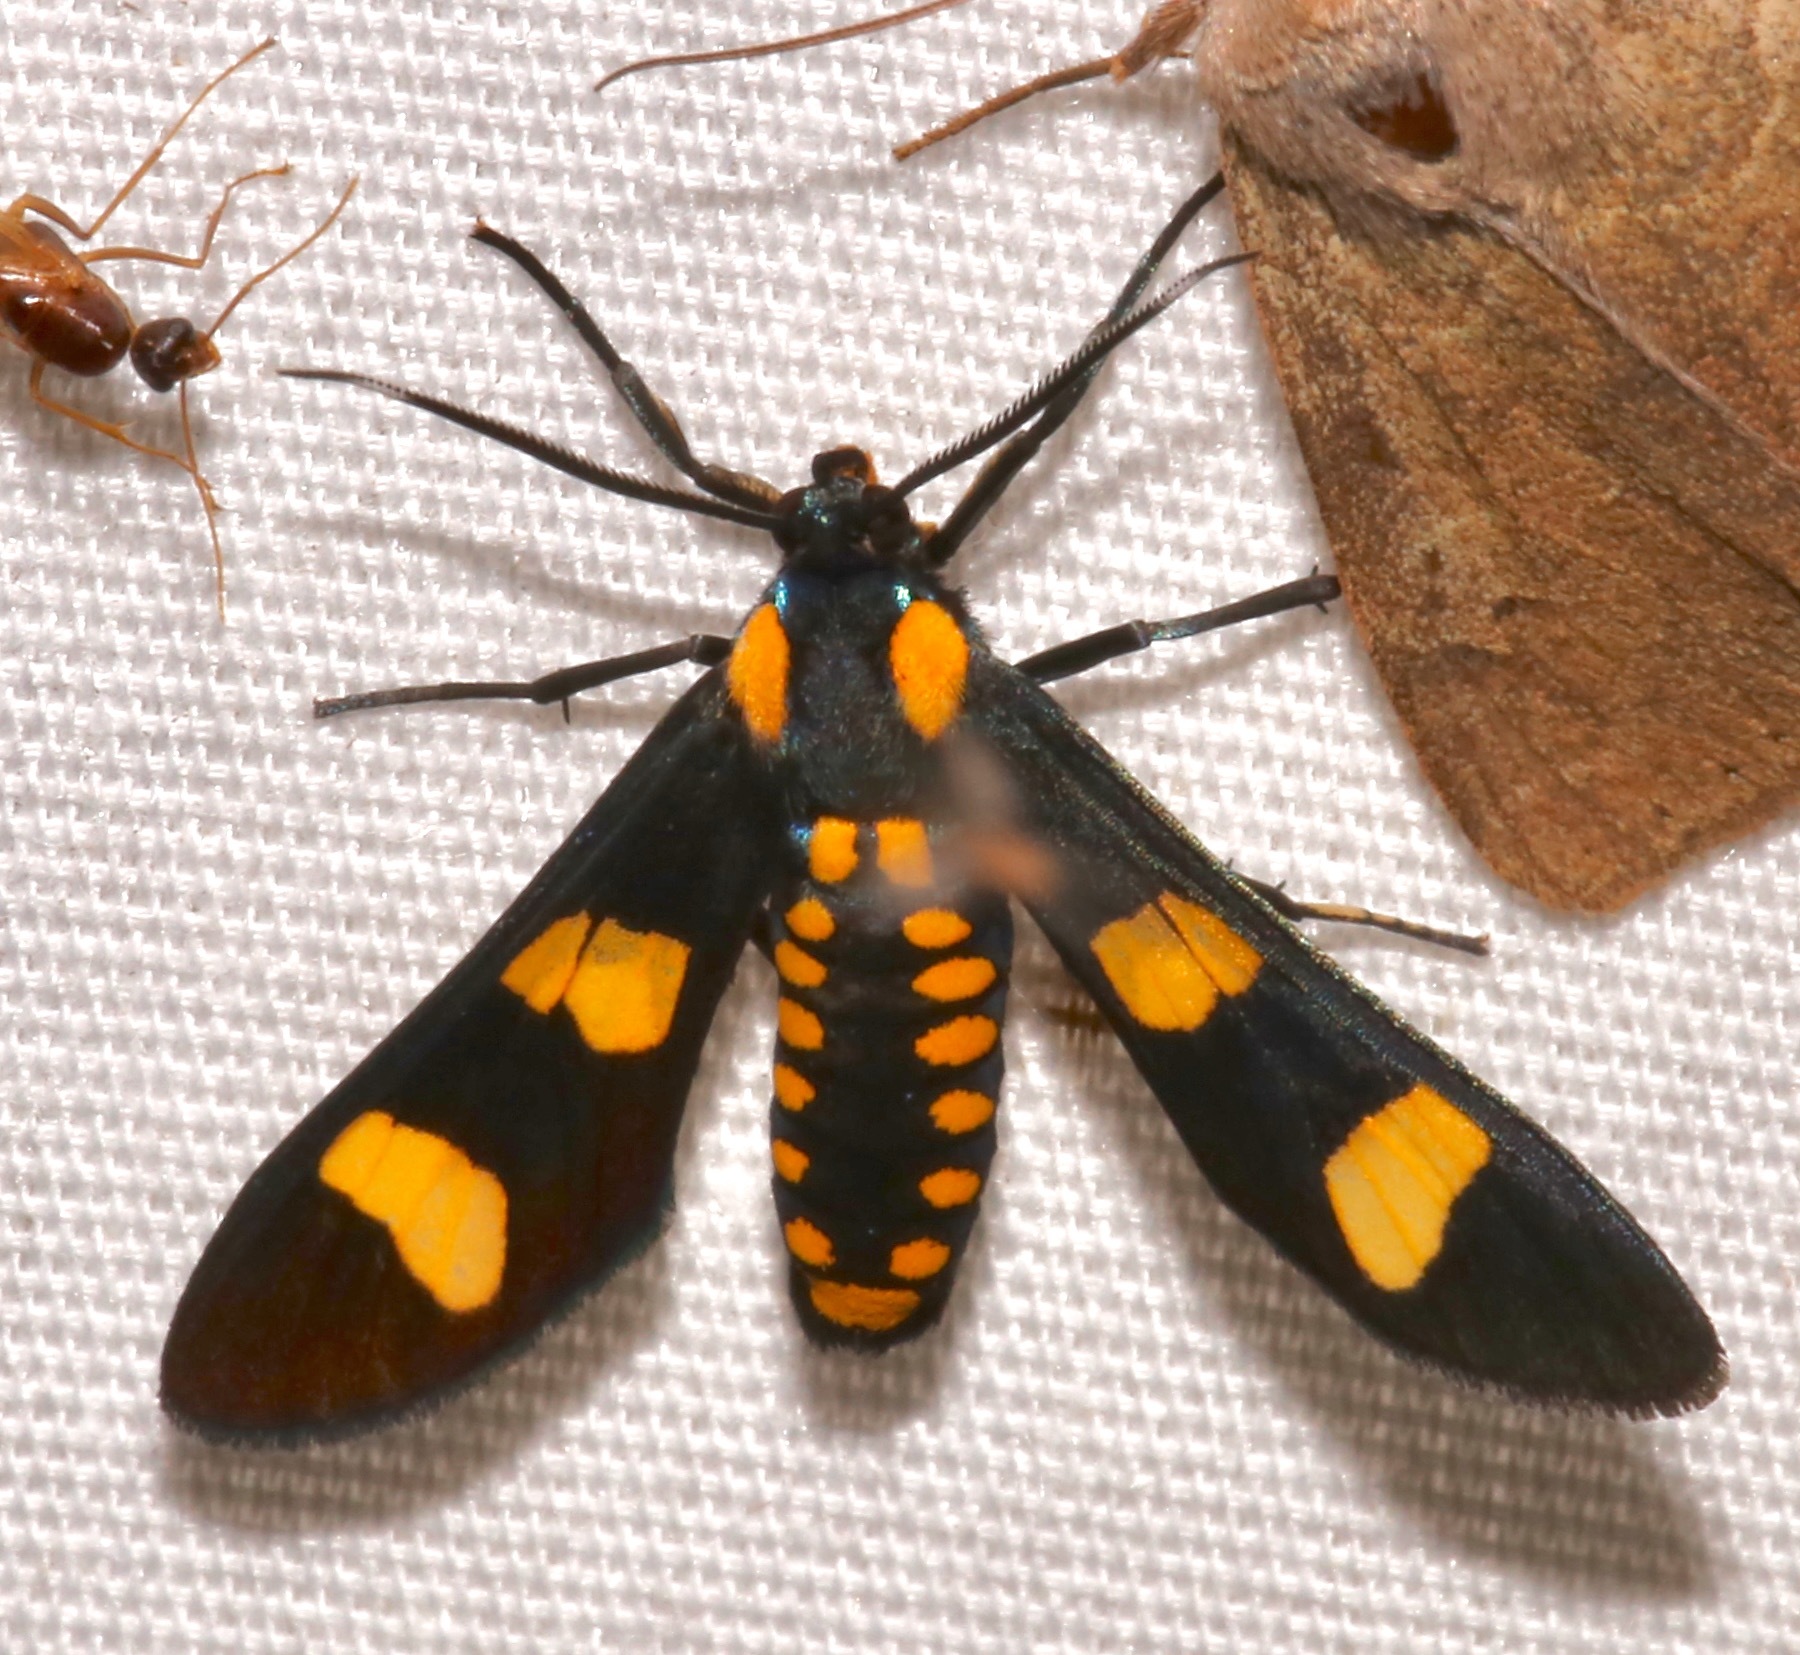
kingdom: Animalia
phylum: Arthropoda
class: Insecta
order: Lepidoptera
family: Erebidae
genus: Phoenicoprocta
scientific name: Phoenicoprocta hampsonii
